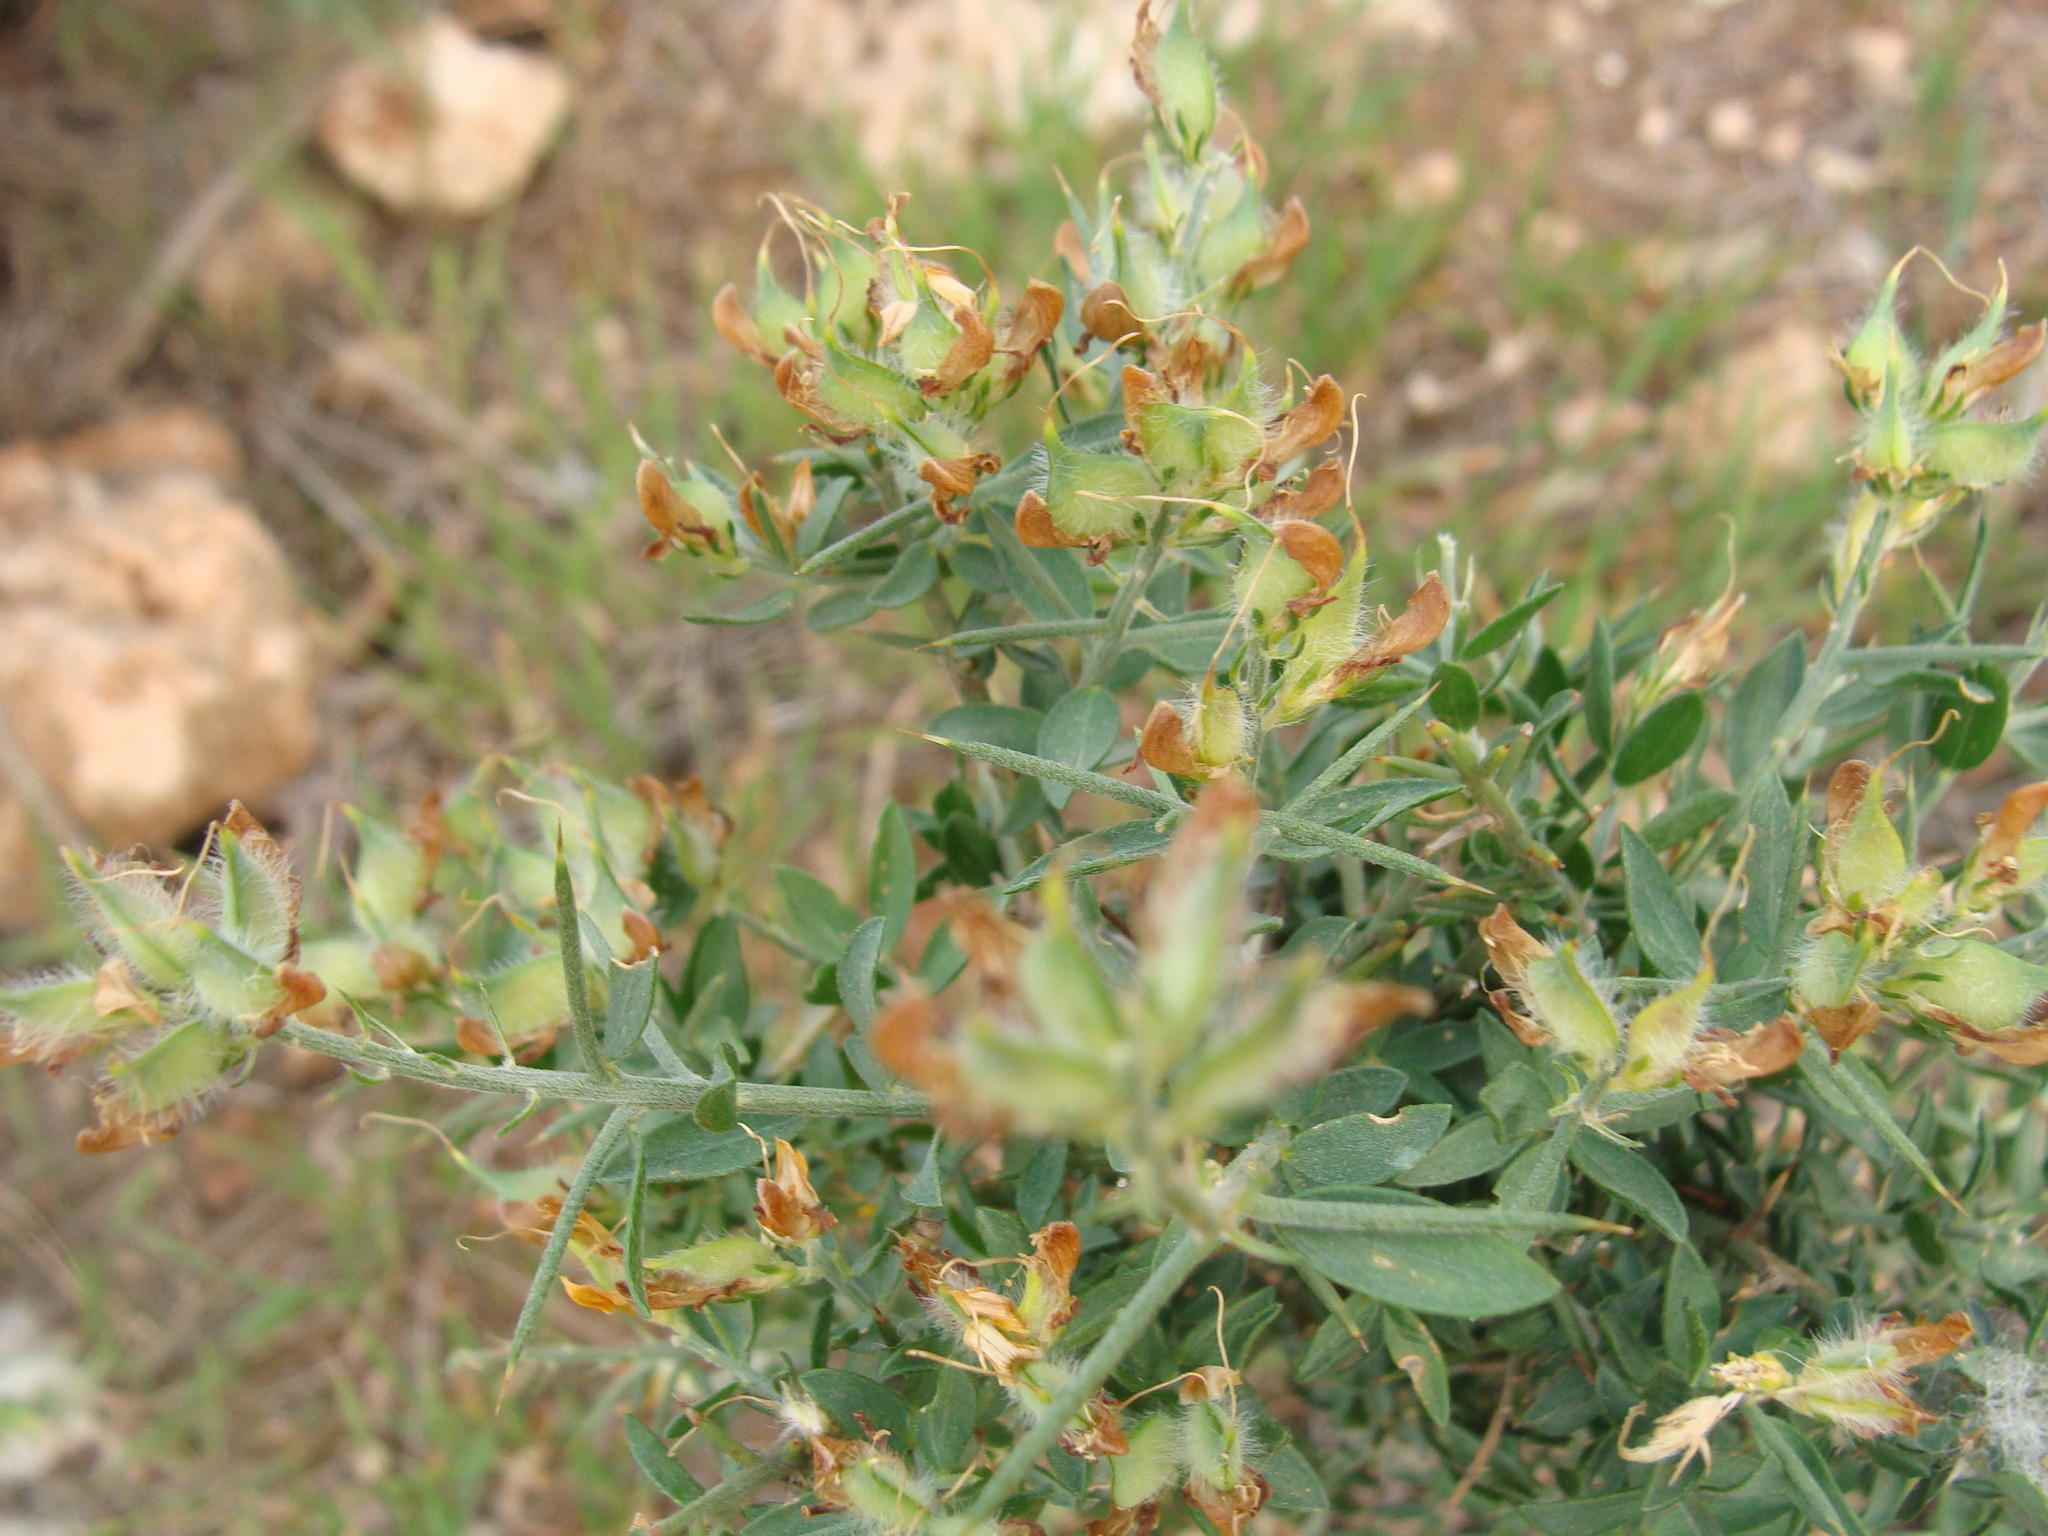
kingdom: Plantae
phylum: Tracheophyta
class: Magnoliopsida
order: Fabales
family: Fabaceae
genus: Genista
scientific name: Genista cephalantha
